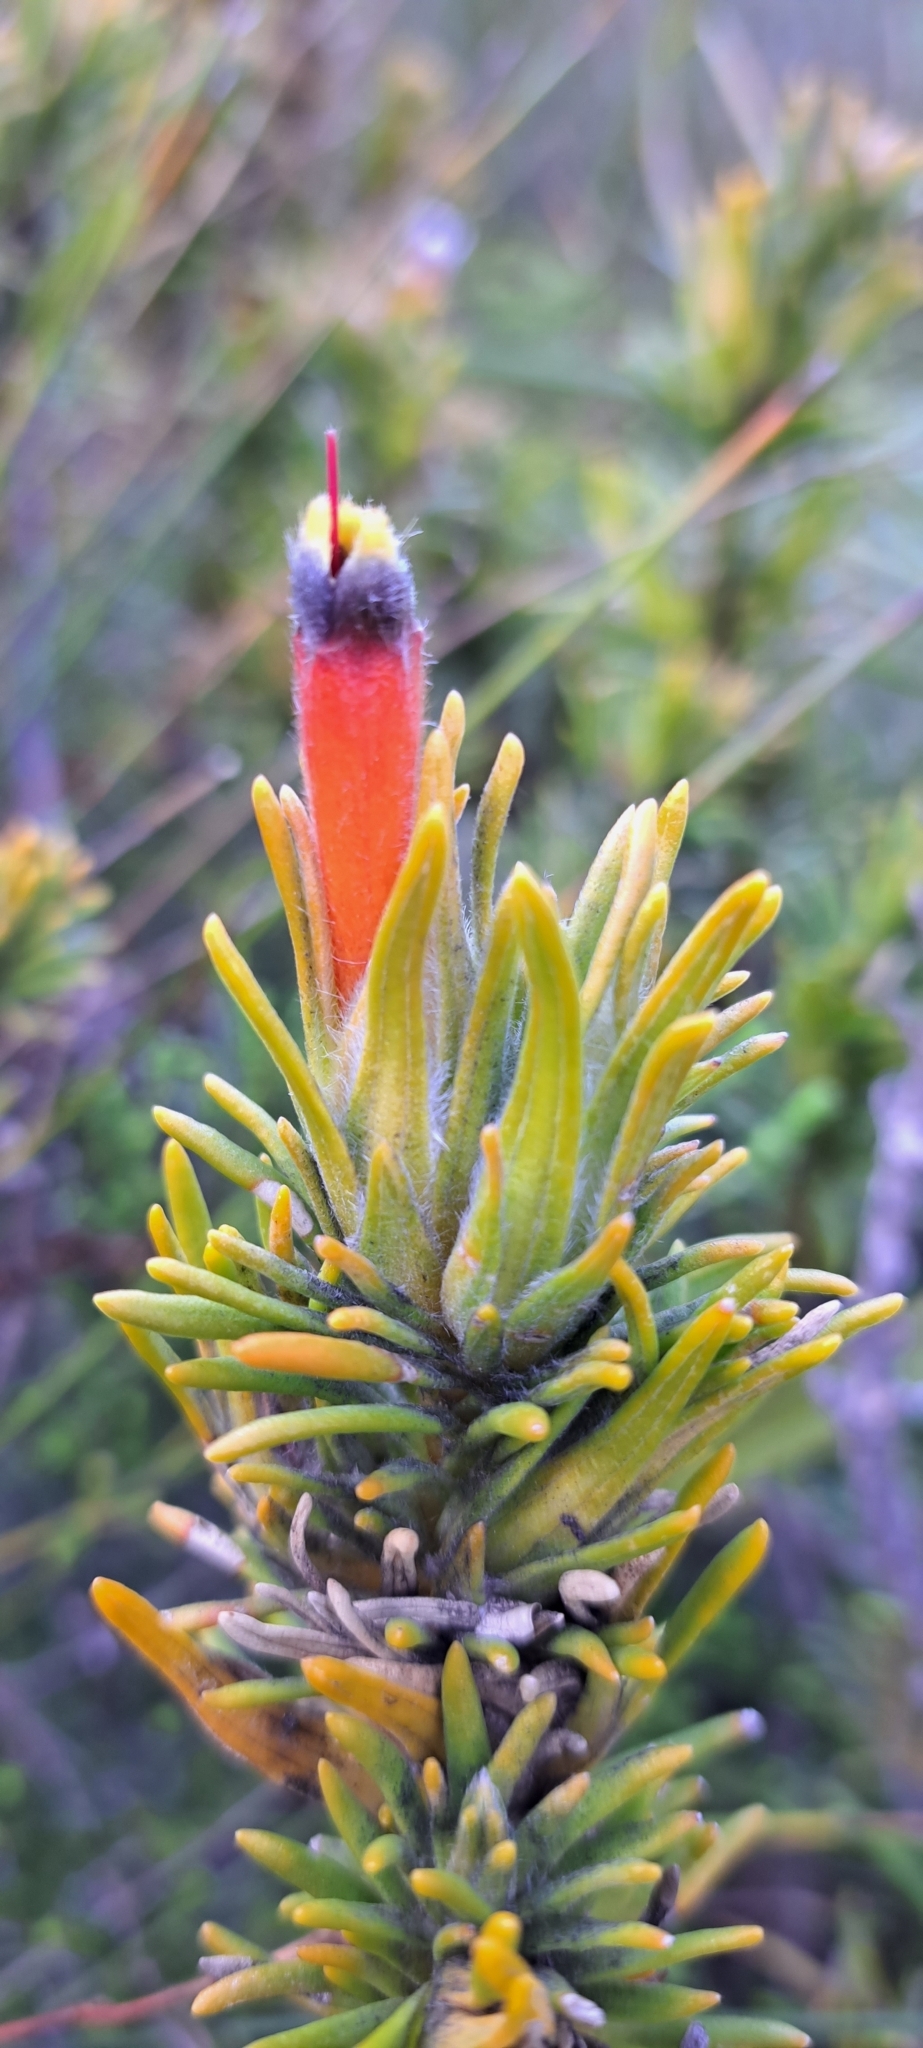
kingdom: Plantae
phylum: Tracheophyta
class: Magnoliopsida
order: Lamiales
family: Stilbaceae
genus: Retzia
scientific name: Retzia capensis
